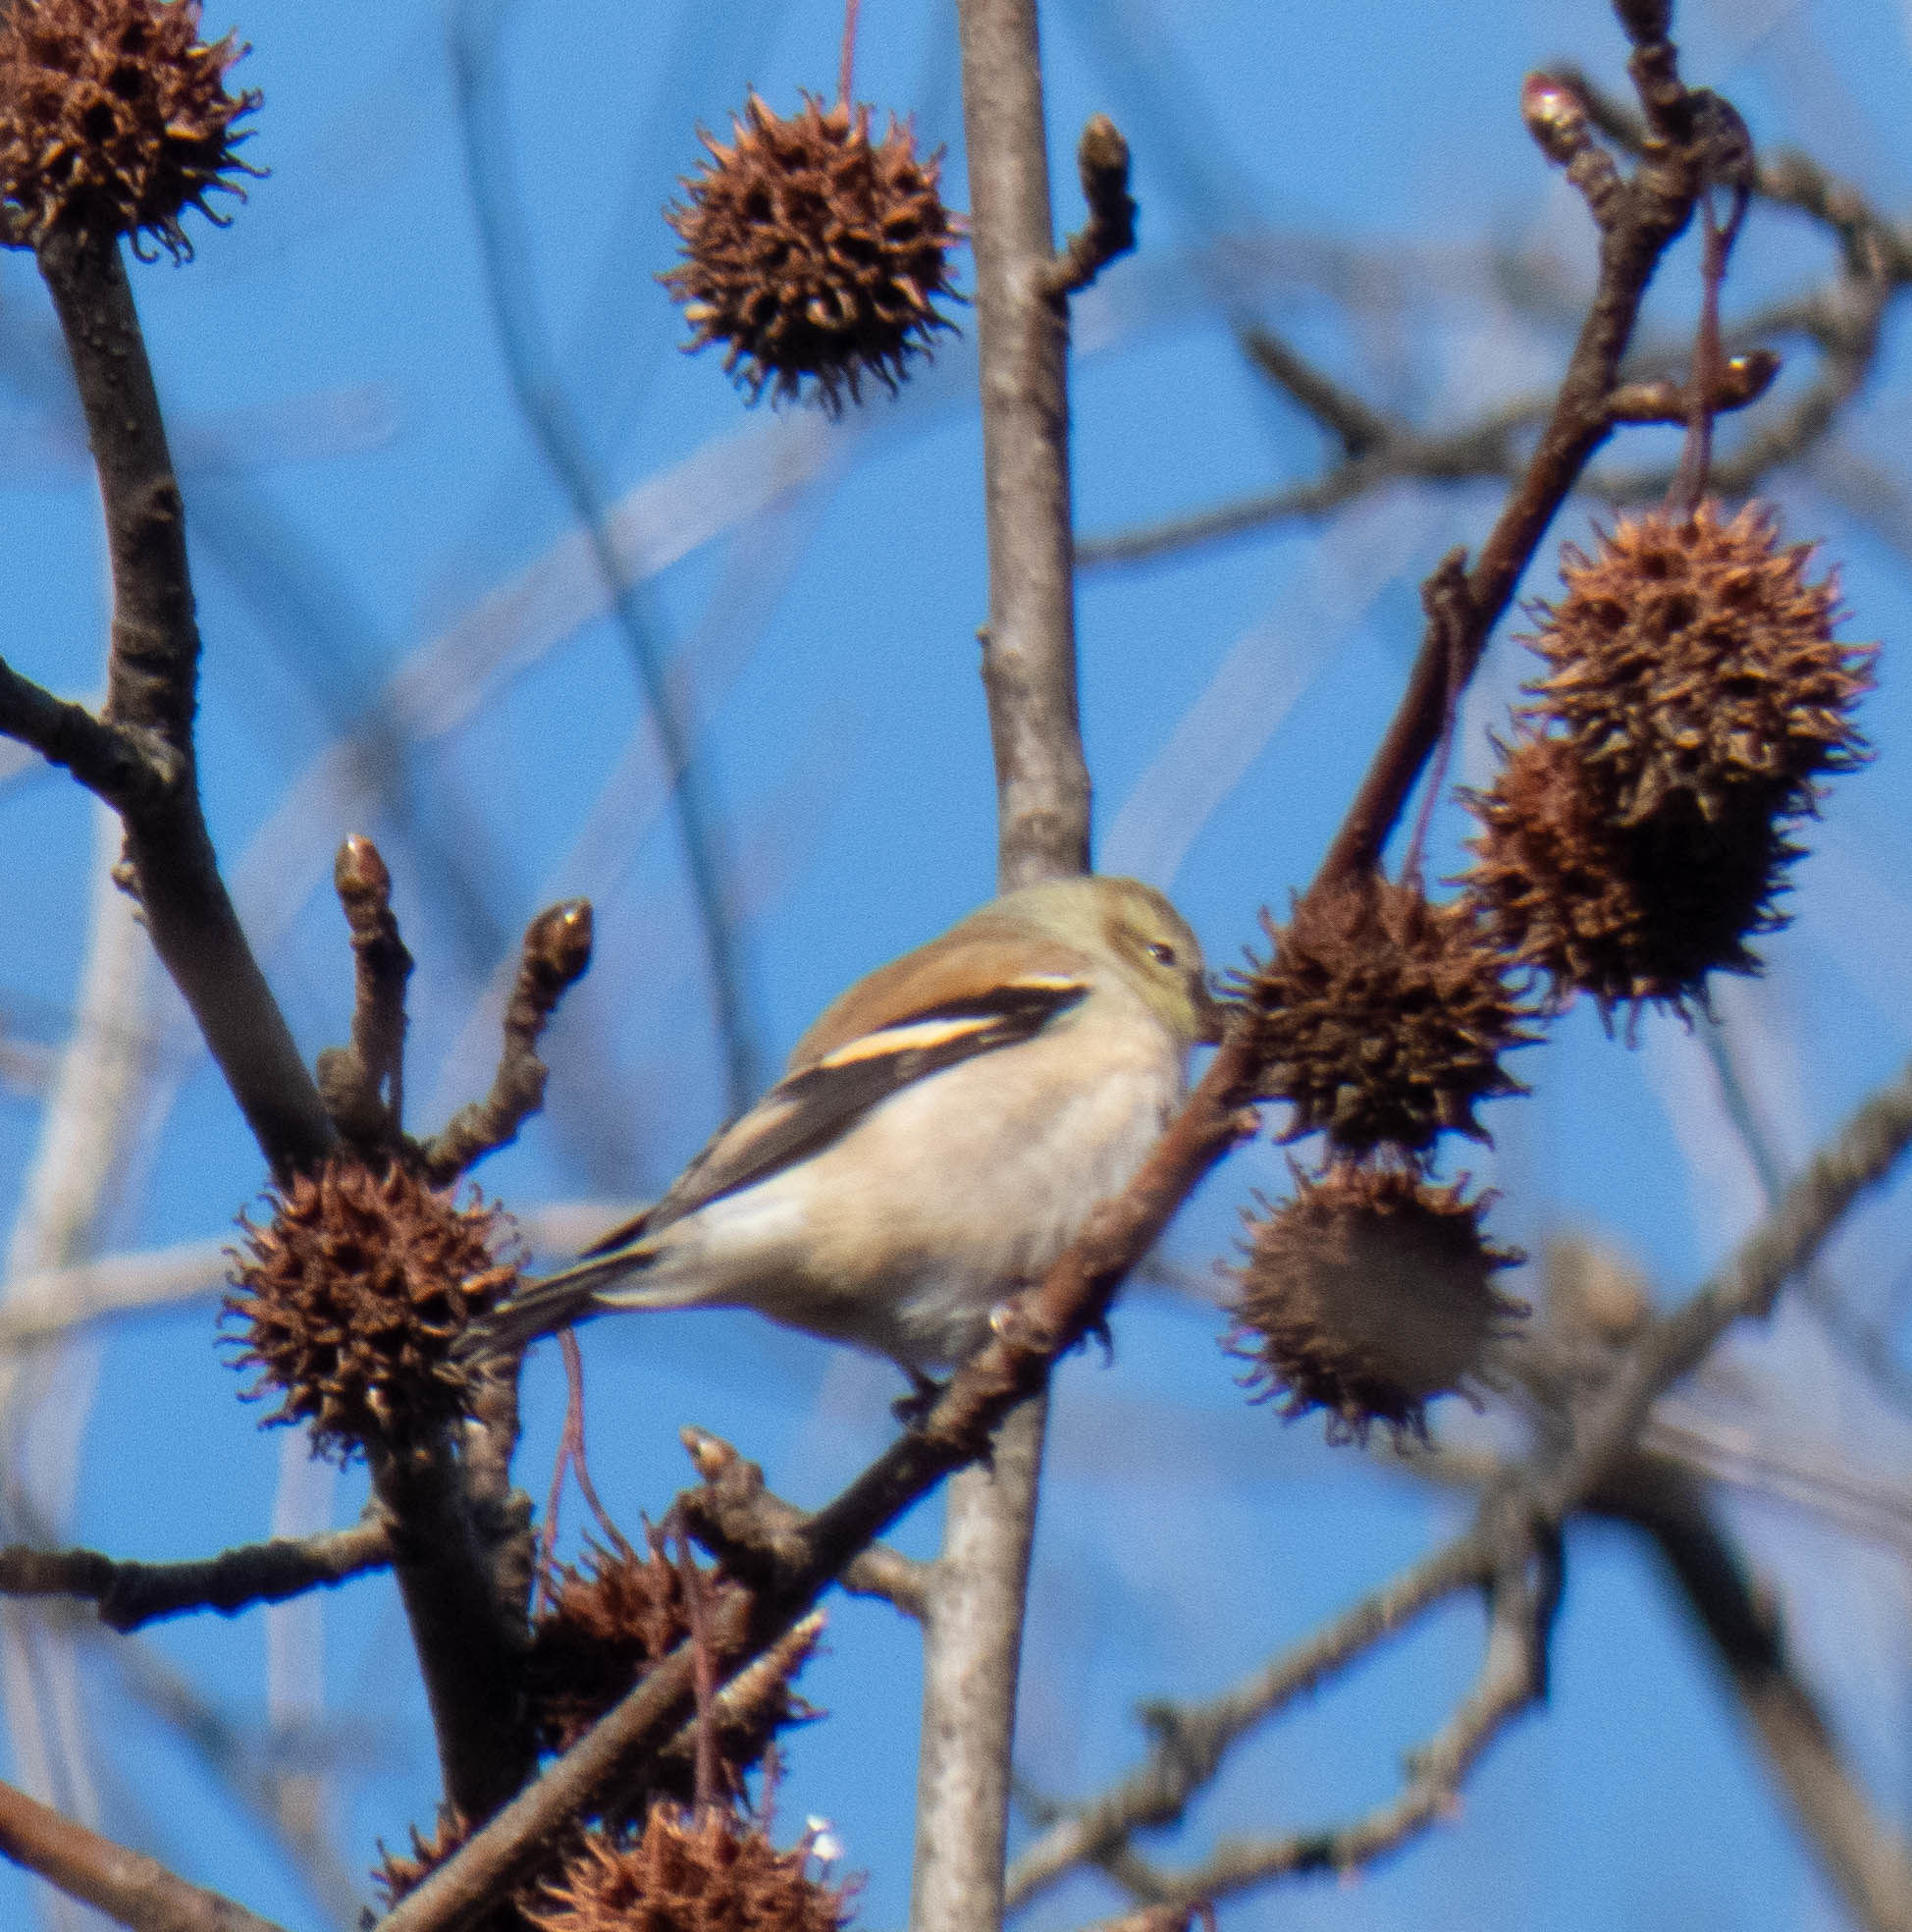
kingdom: Animalia
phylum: Chordata
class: Aves
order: Passeriformes
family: Fringillidae
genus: Spinus
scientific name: Spinus tristis
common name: American goldfinch
